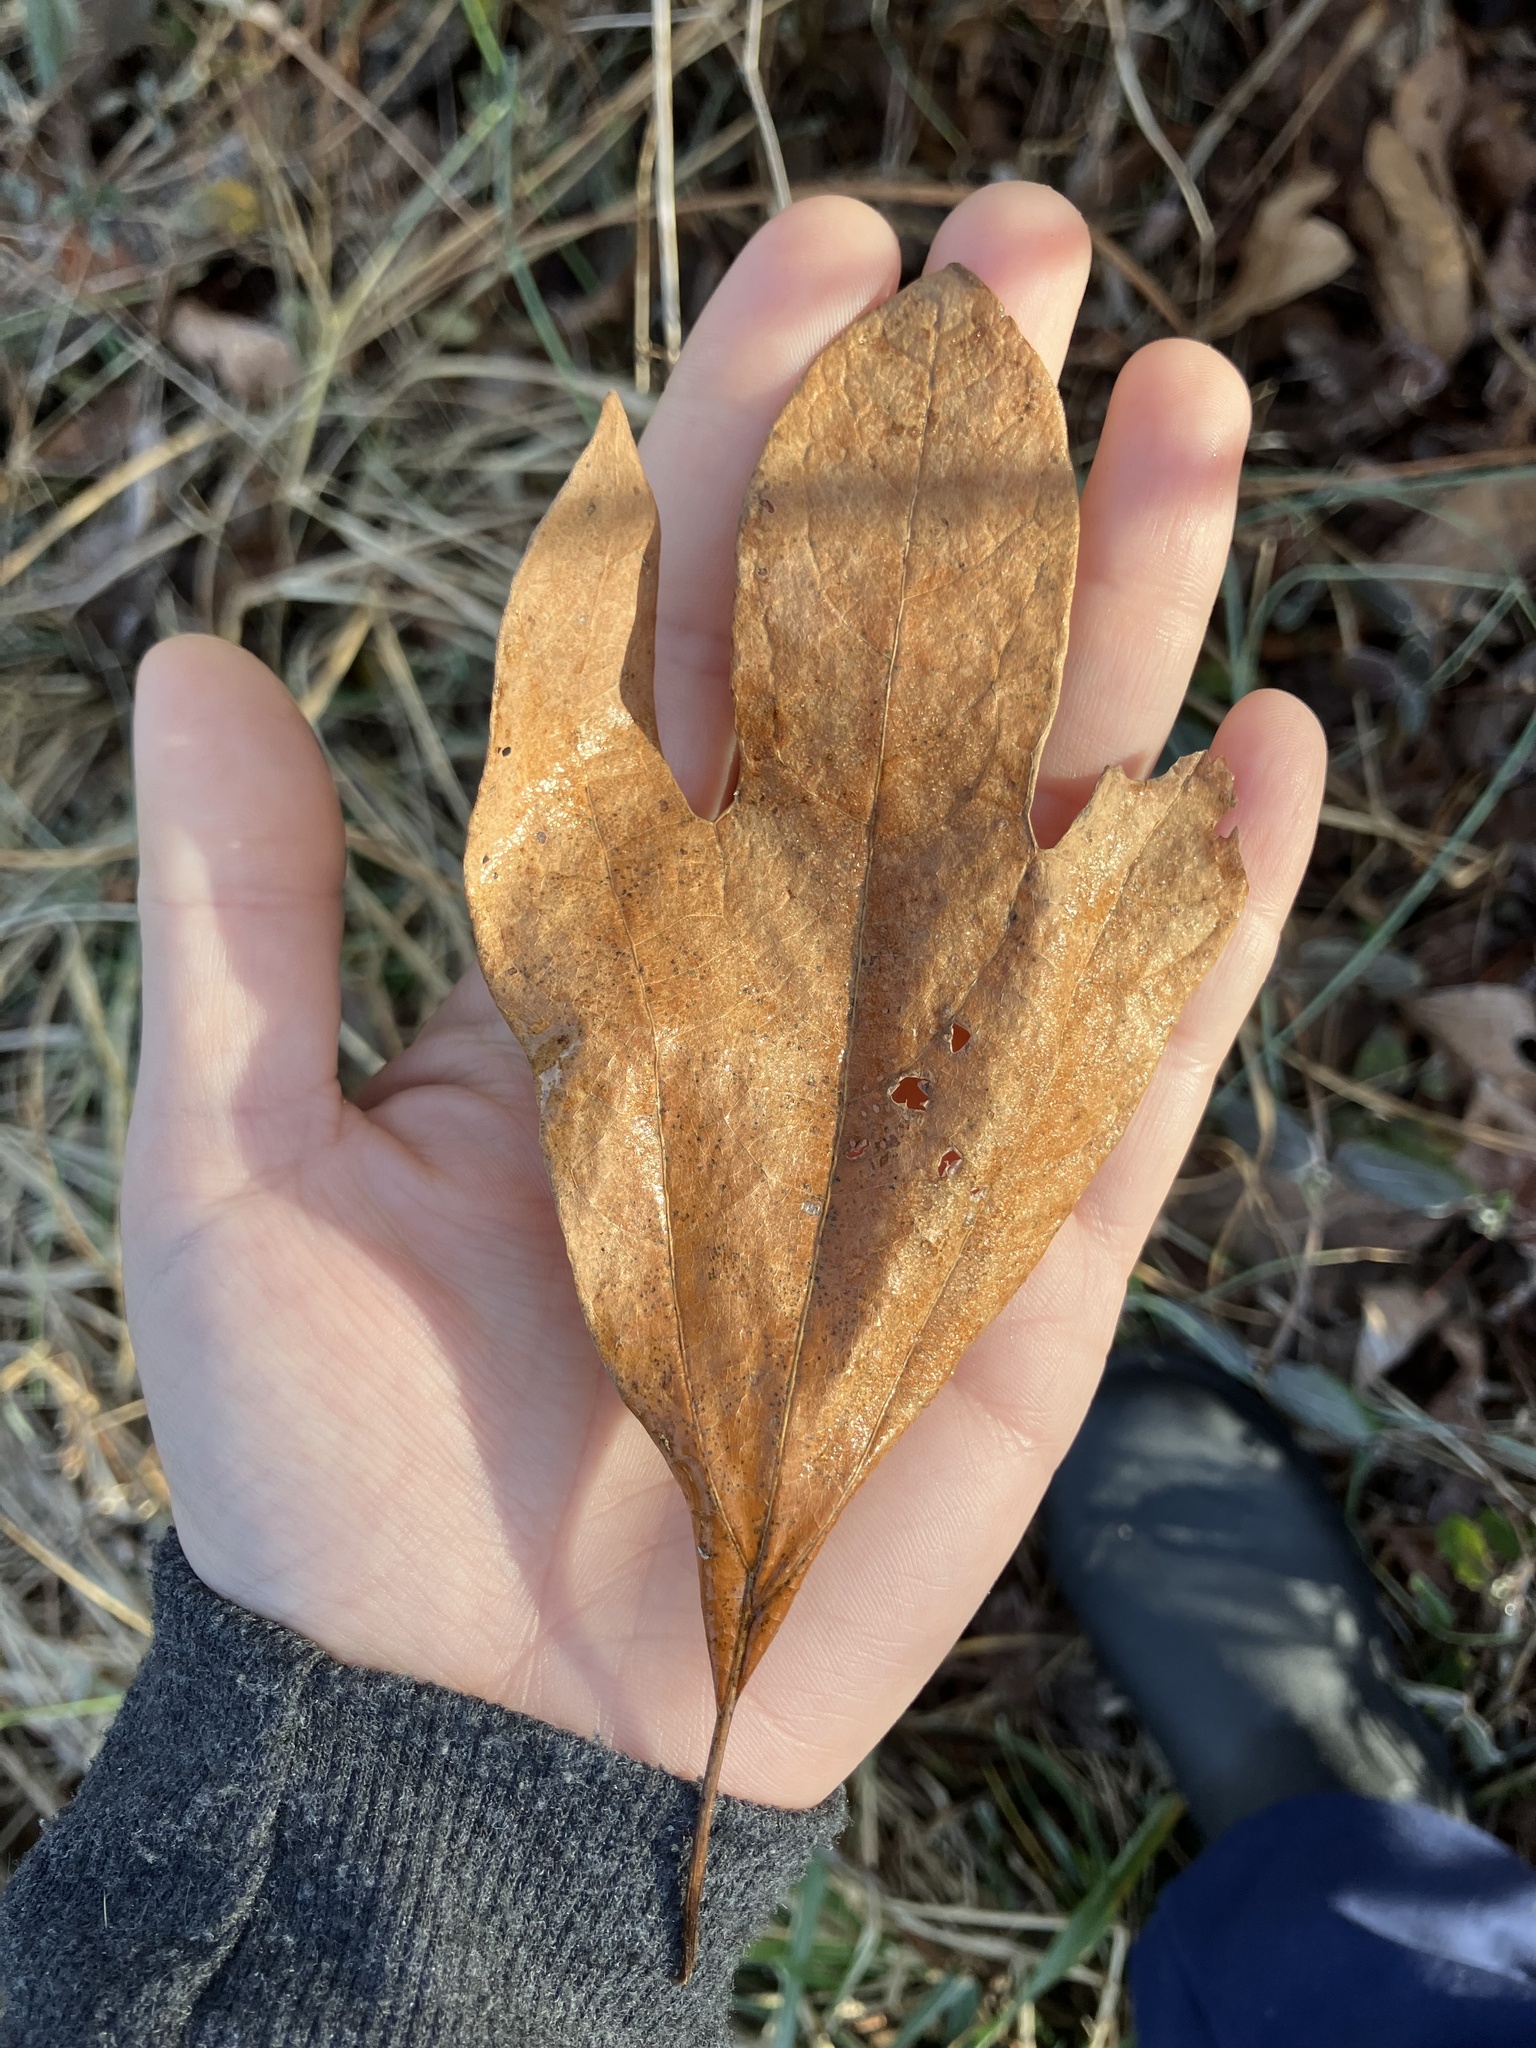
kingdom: Plantae
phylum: Tracheophyta
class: Magnoliopsida
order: Laurales
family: Lauraceae
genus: Sassafras
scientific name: Sassafras albidum
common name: Sassafras
